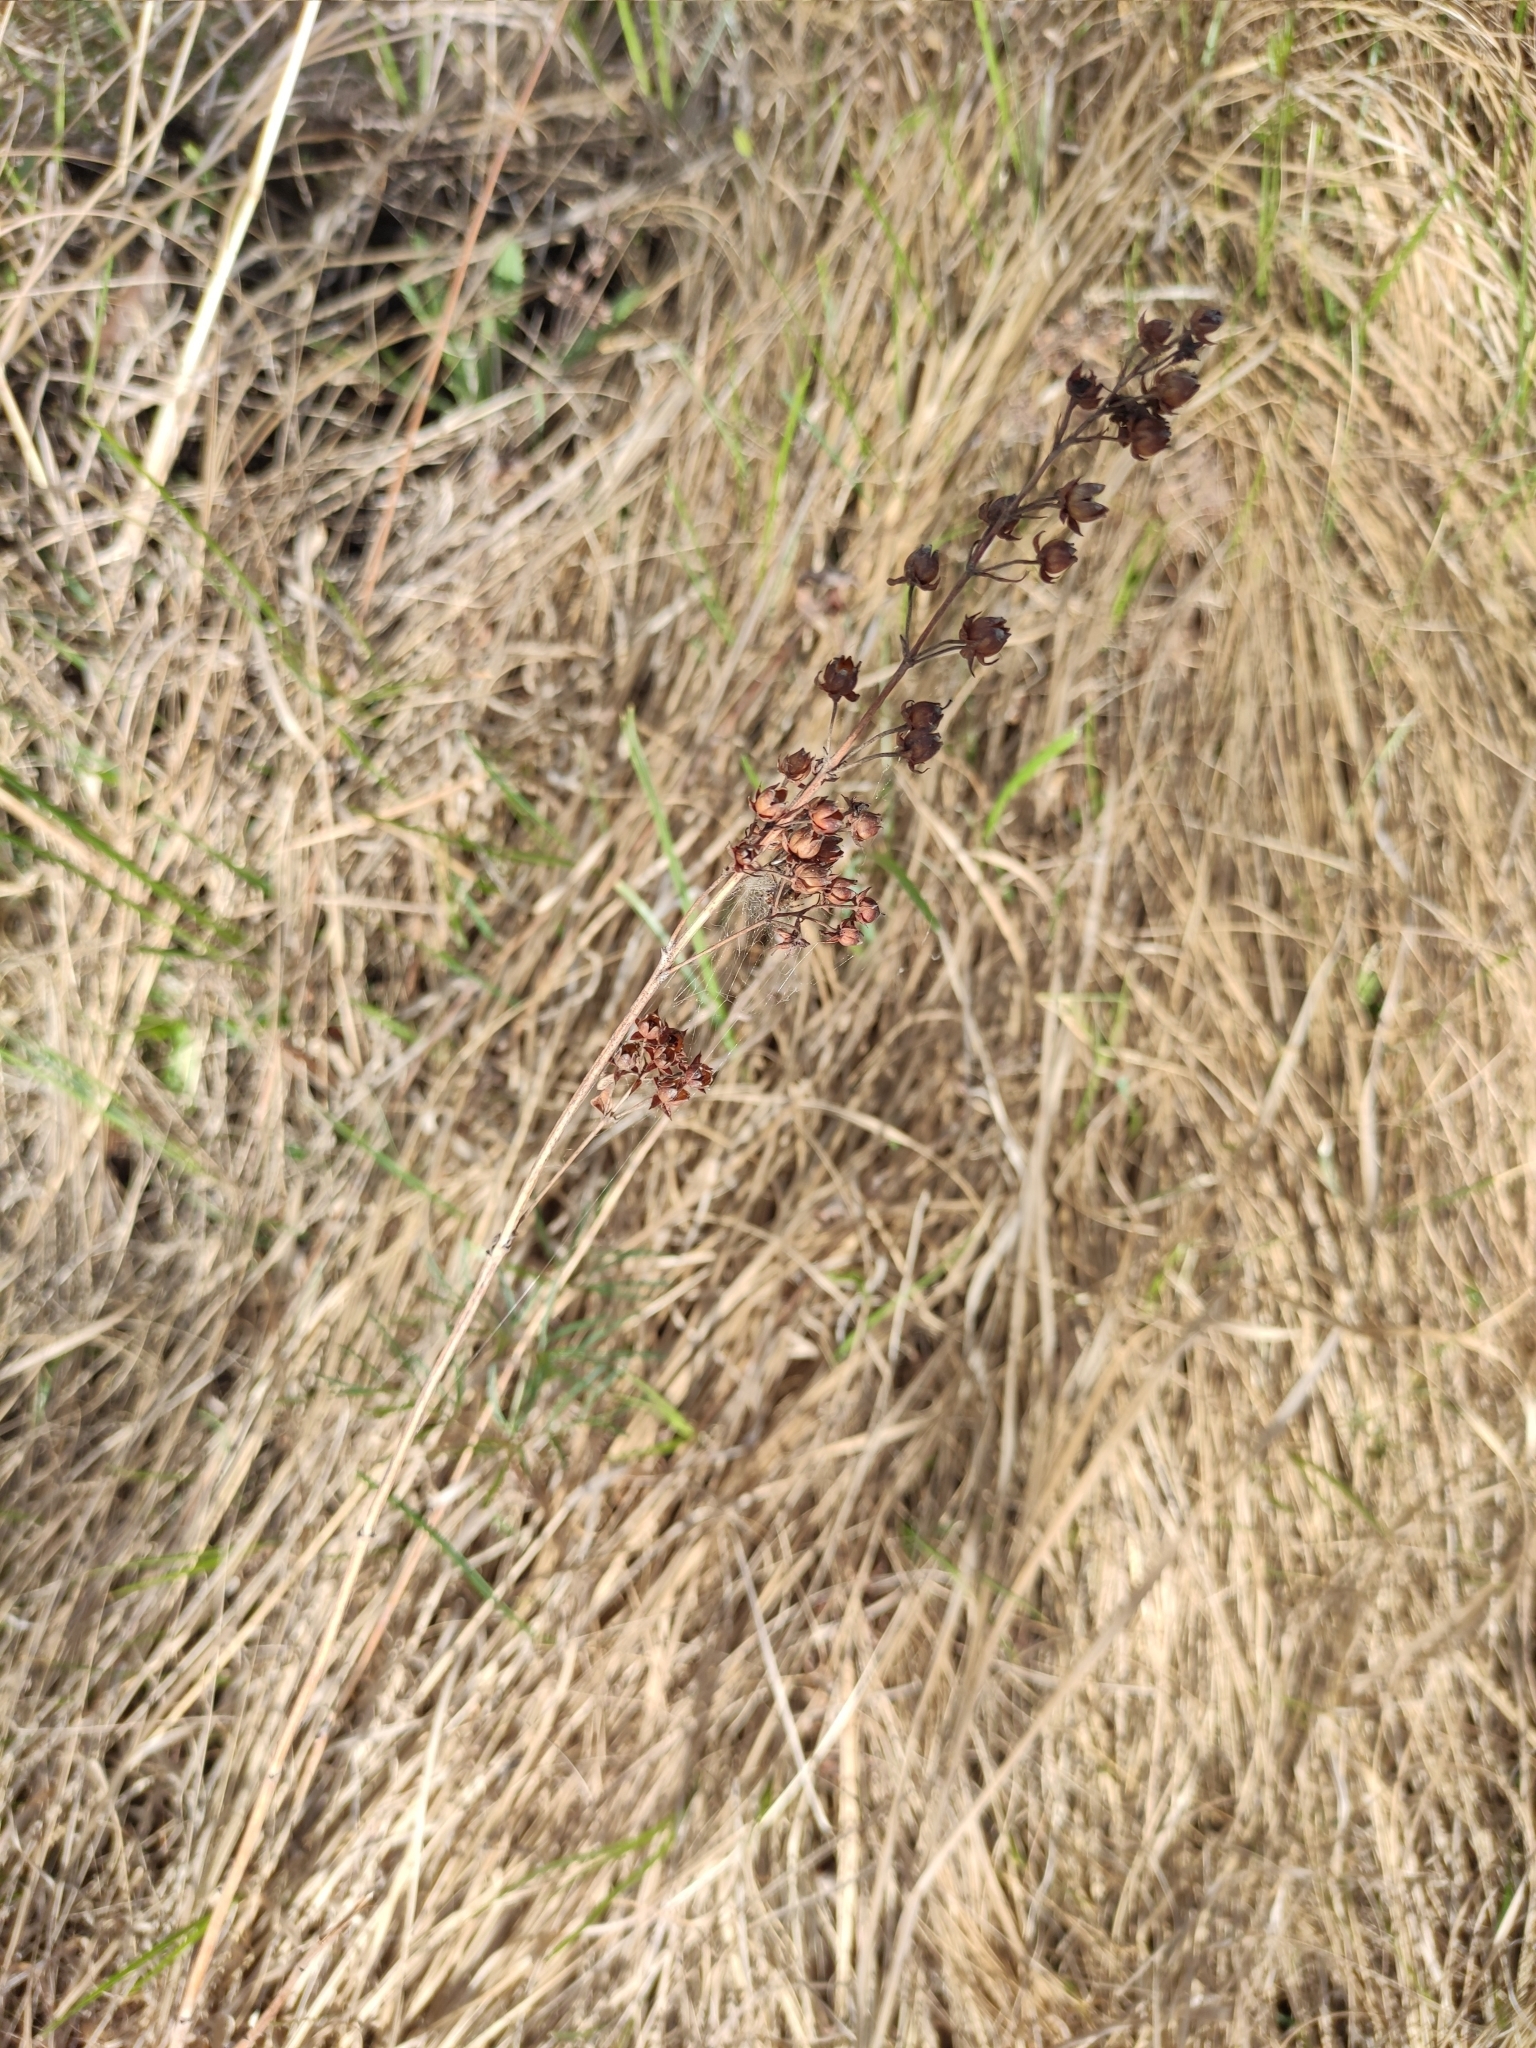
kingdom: Plantae
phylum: Tracheophyta
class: Magnoliopsida
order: Ericales
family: Primulaceae
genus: Lysimachia
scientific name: Lysimachia davurica
